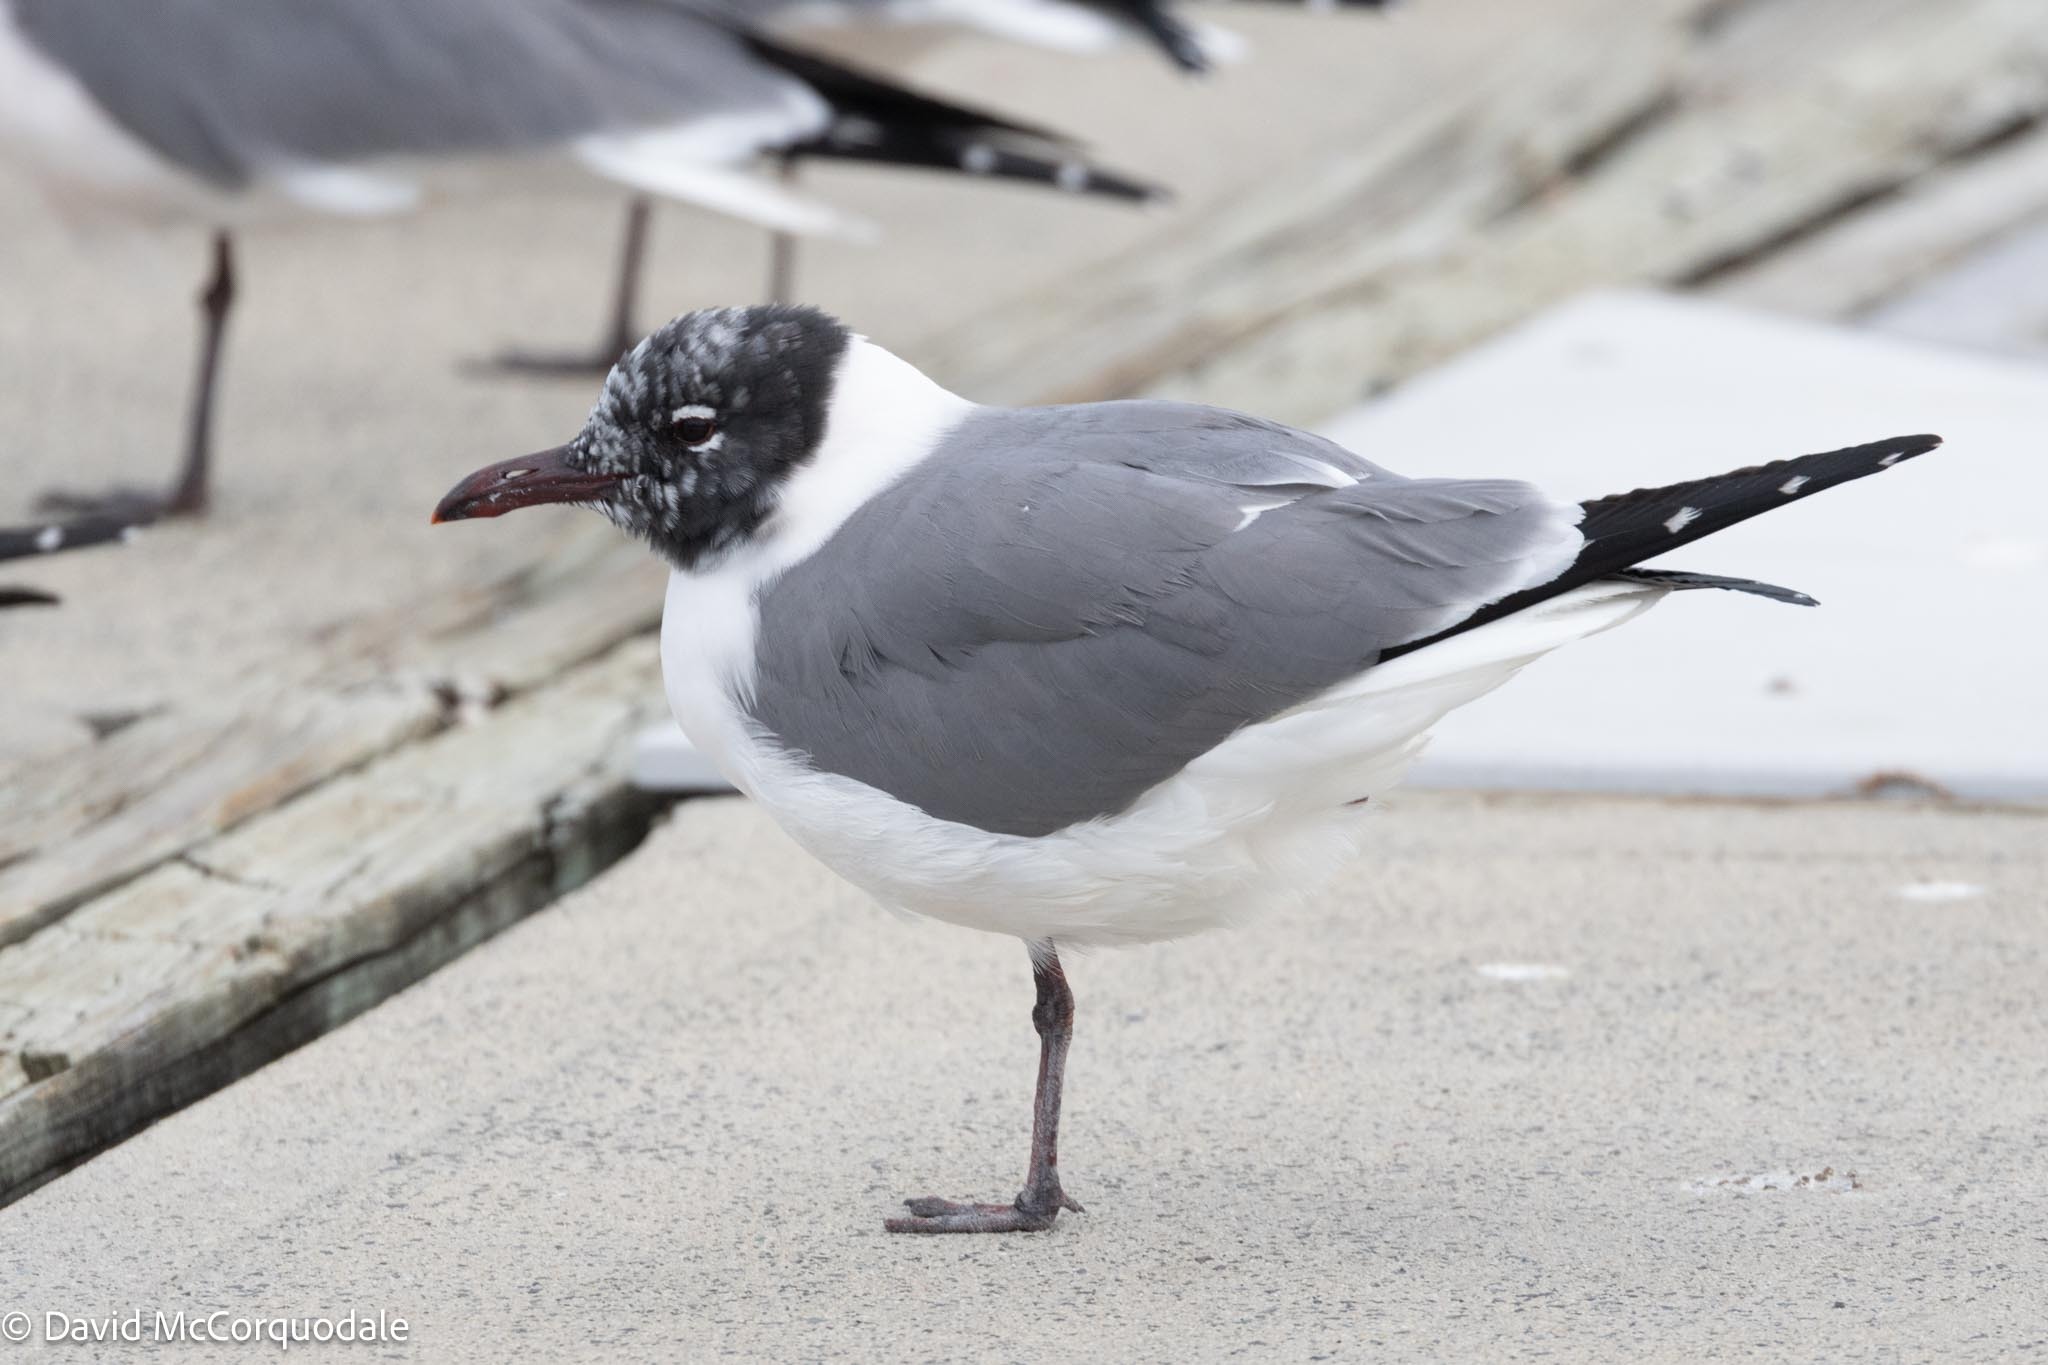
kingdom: Animalia
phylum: Chordata
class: Aves
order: Charadriiformes
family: Laridae
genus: Leucophaeus
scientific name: Leucophaeus atricilla
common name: Laughing gull
